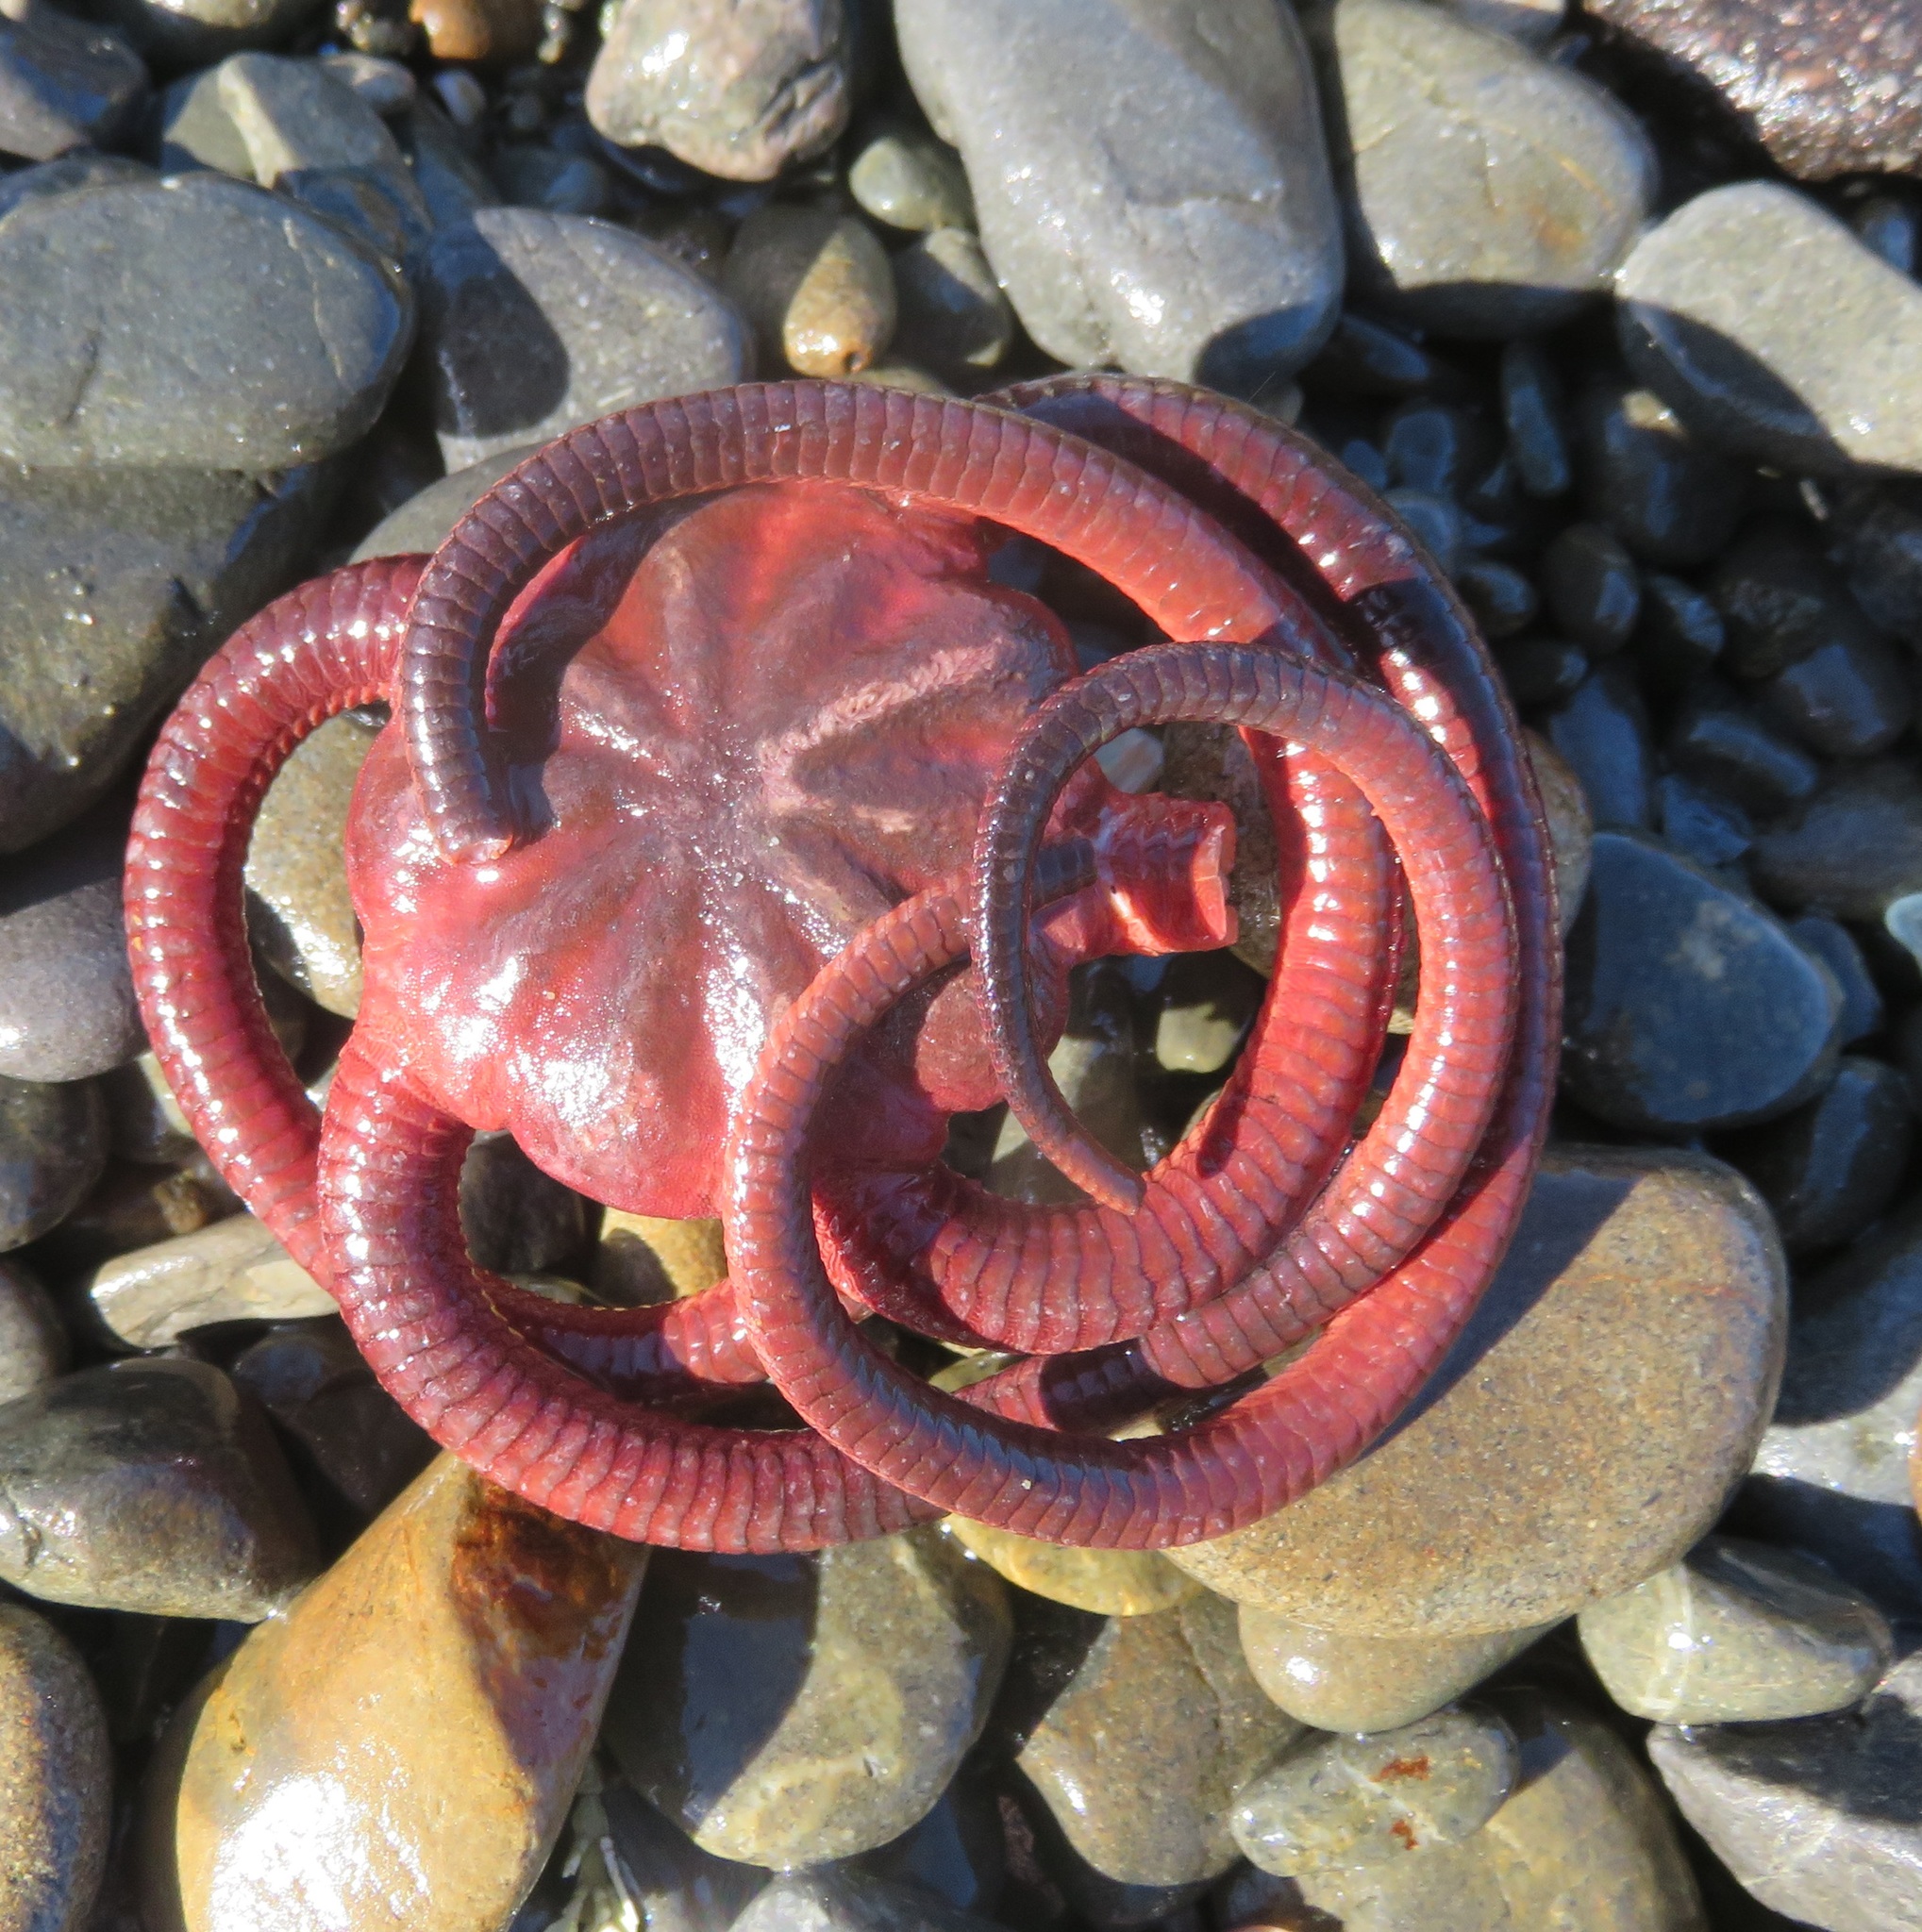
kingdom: Animalia
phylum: Echinodermata
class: Ophiuroidea
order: Ophiacanthida
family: Ophiodermatidae
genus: Ophiopsammus
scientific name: Ophiopsammus maculata
